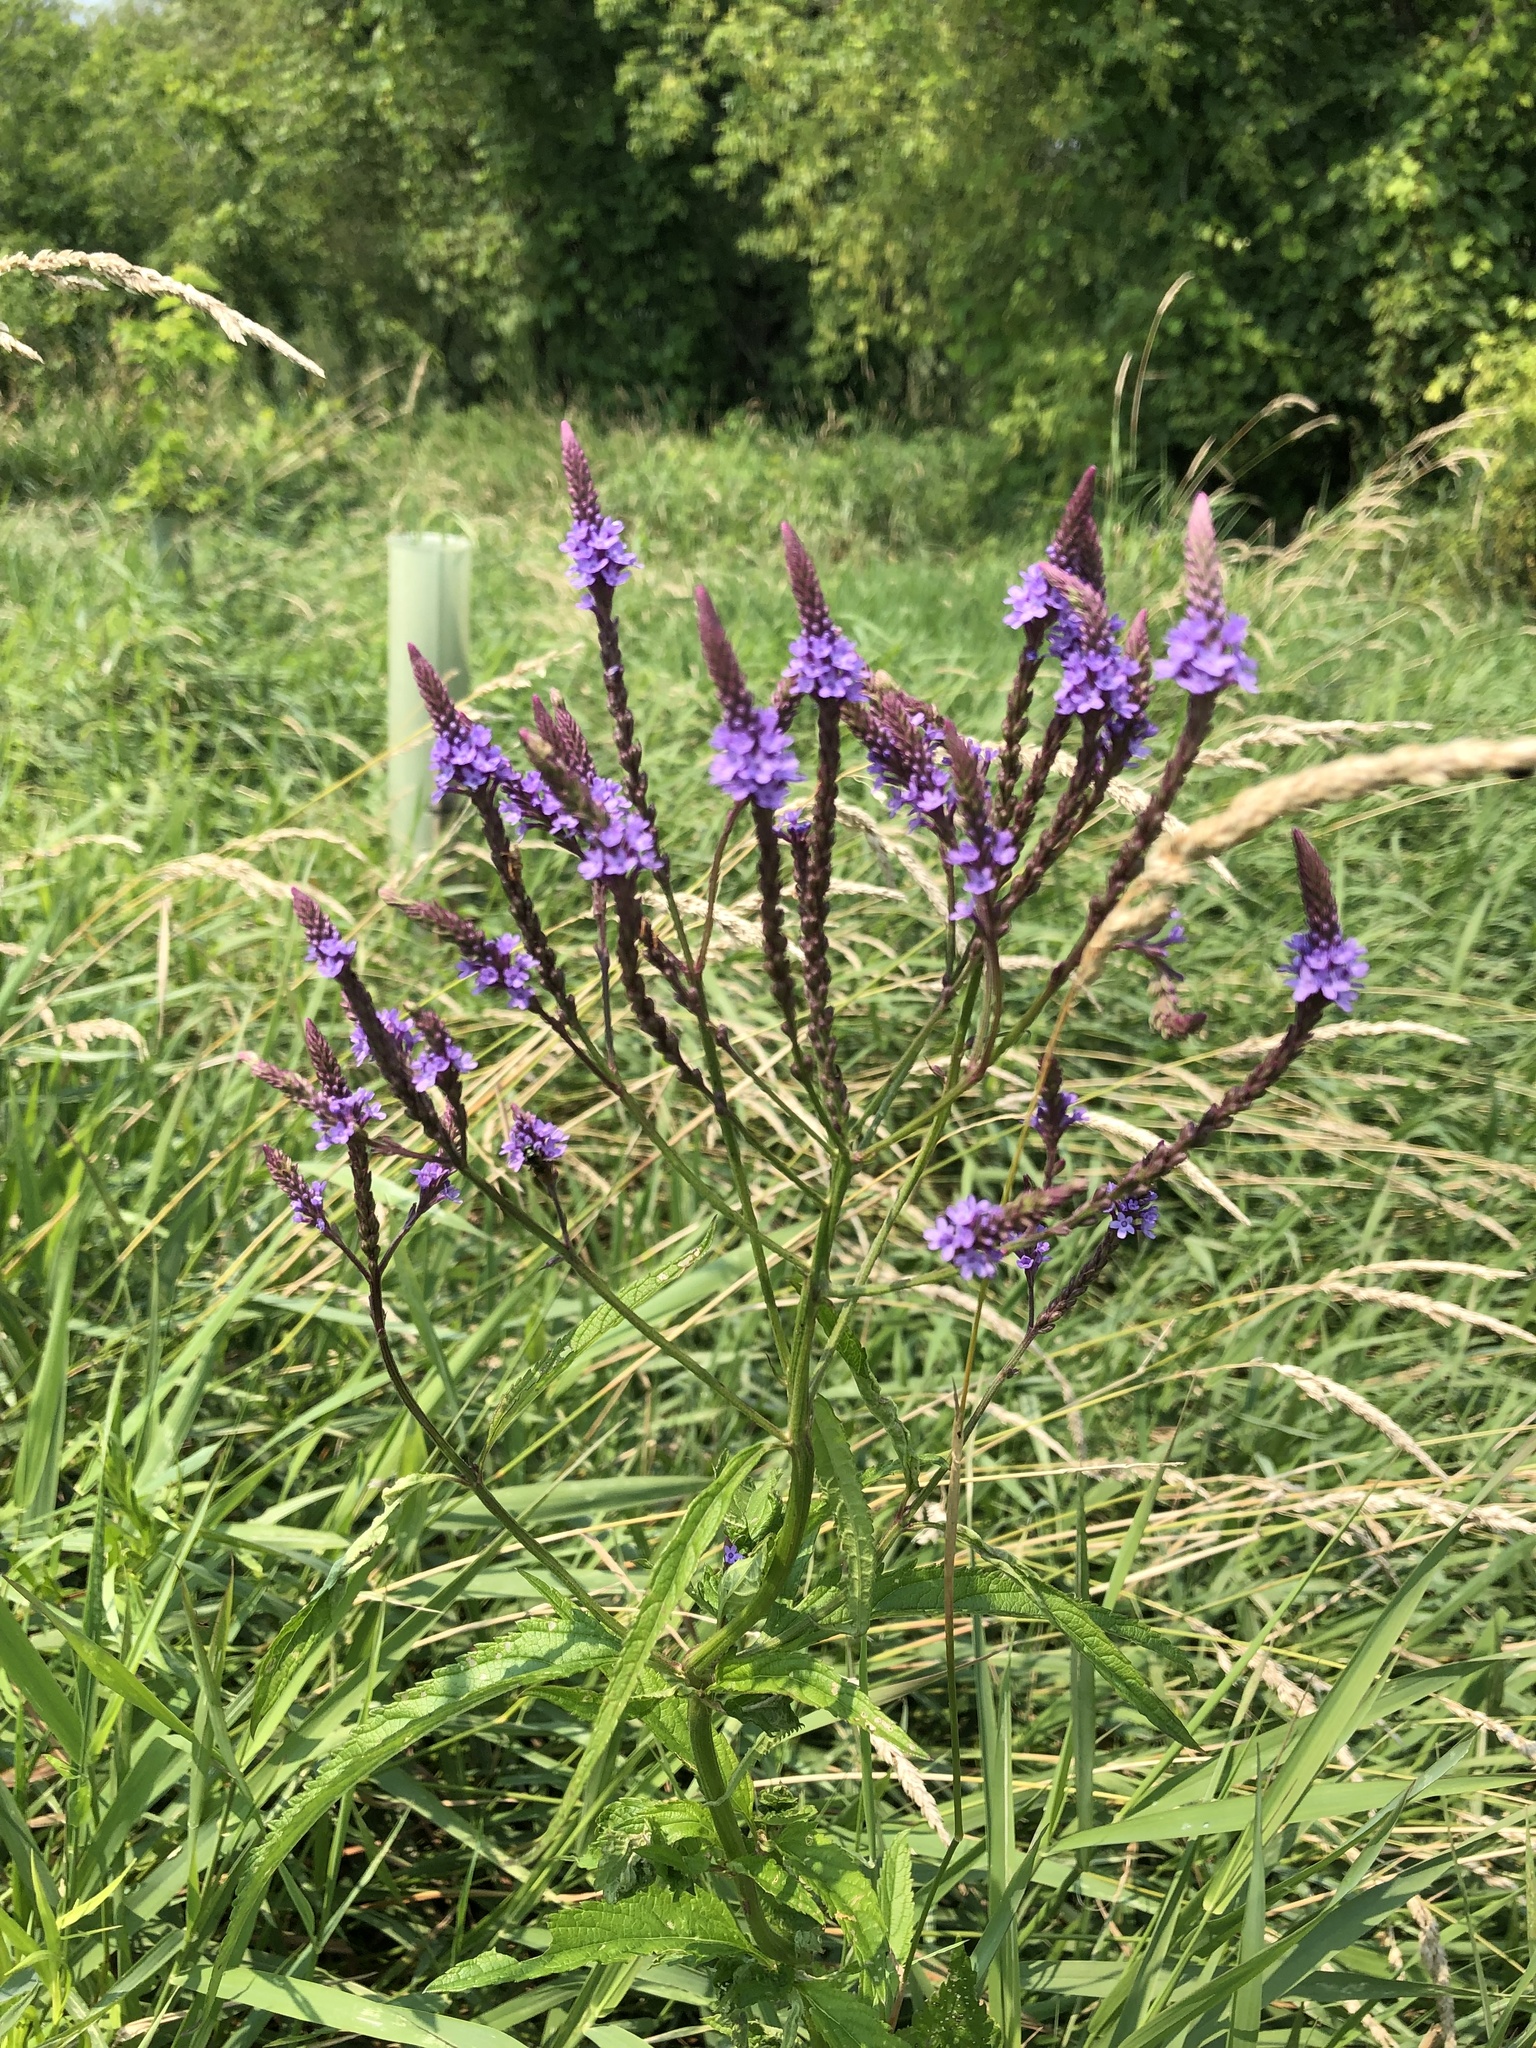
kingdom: Plantae
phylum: Tracheophyta
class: Magnoliopsida
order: Lamiales
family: Verbenaceae
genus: Verbena
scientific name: Verbena hastata
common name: American blue vervain
